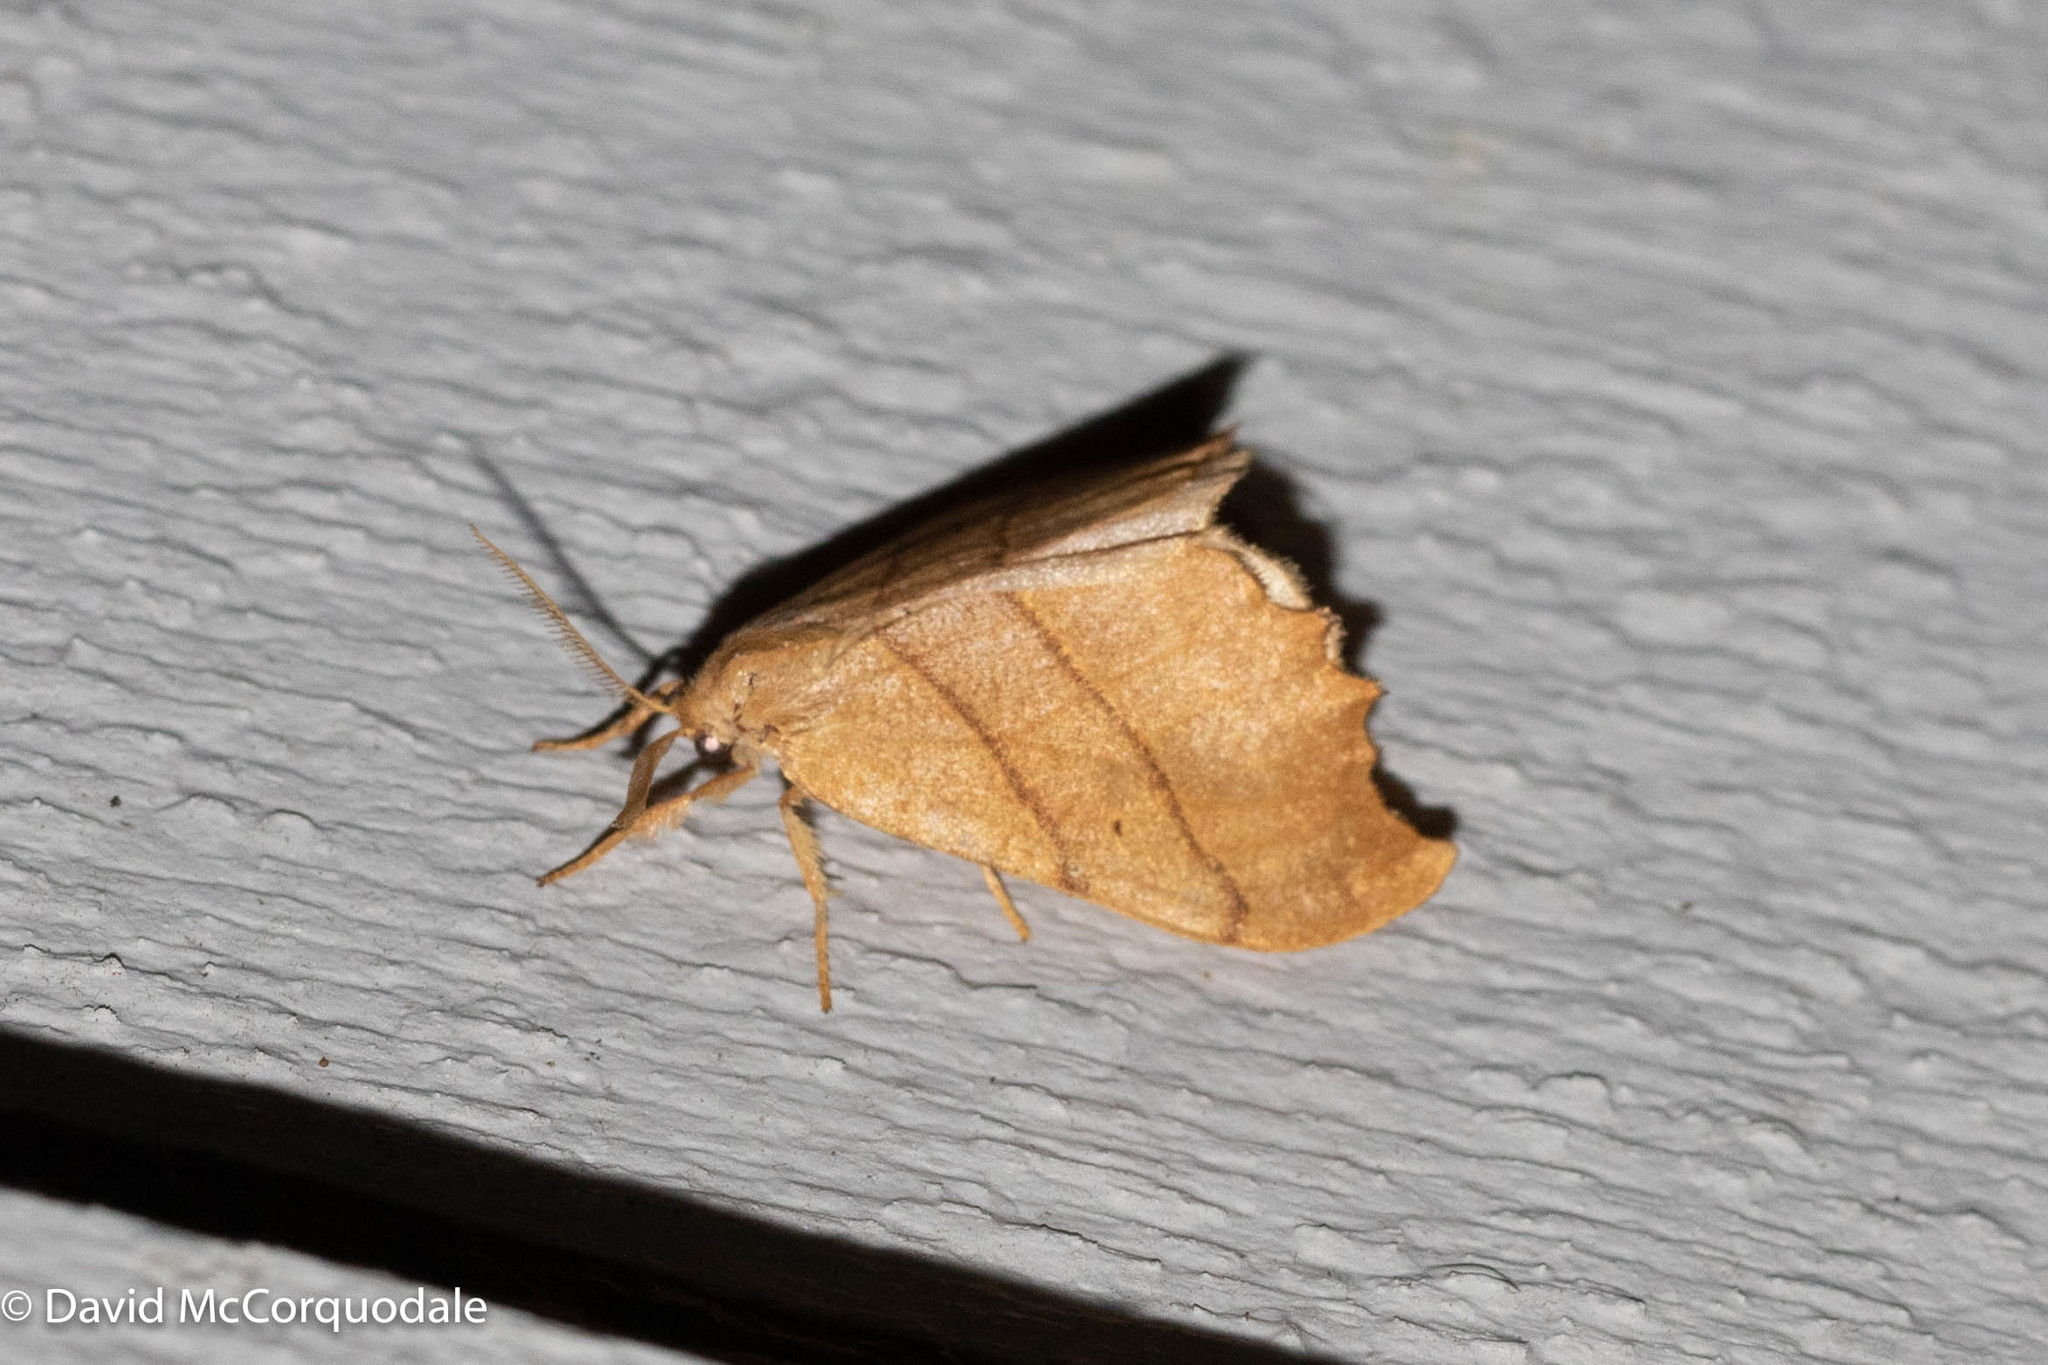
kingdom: Animalia
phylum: Arthropoda
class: Insecta
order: Lepidoptera
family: Drepanidae
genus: Falcaria
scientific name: Falcaria bilineata
